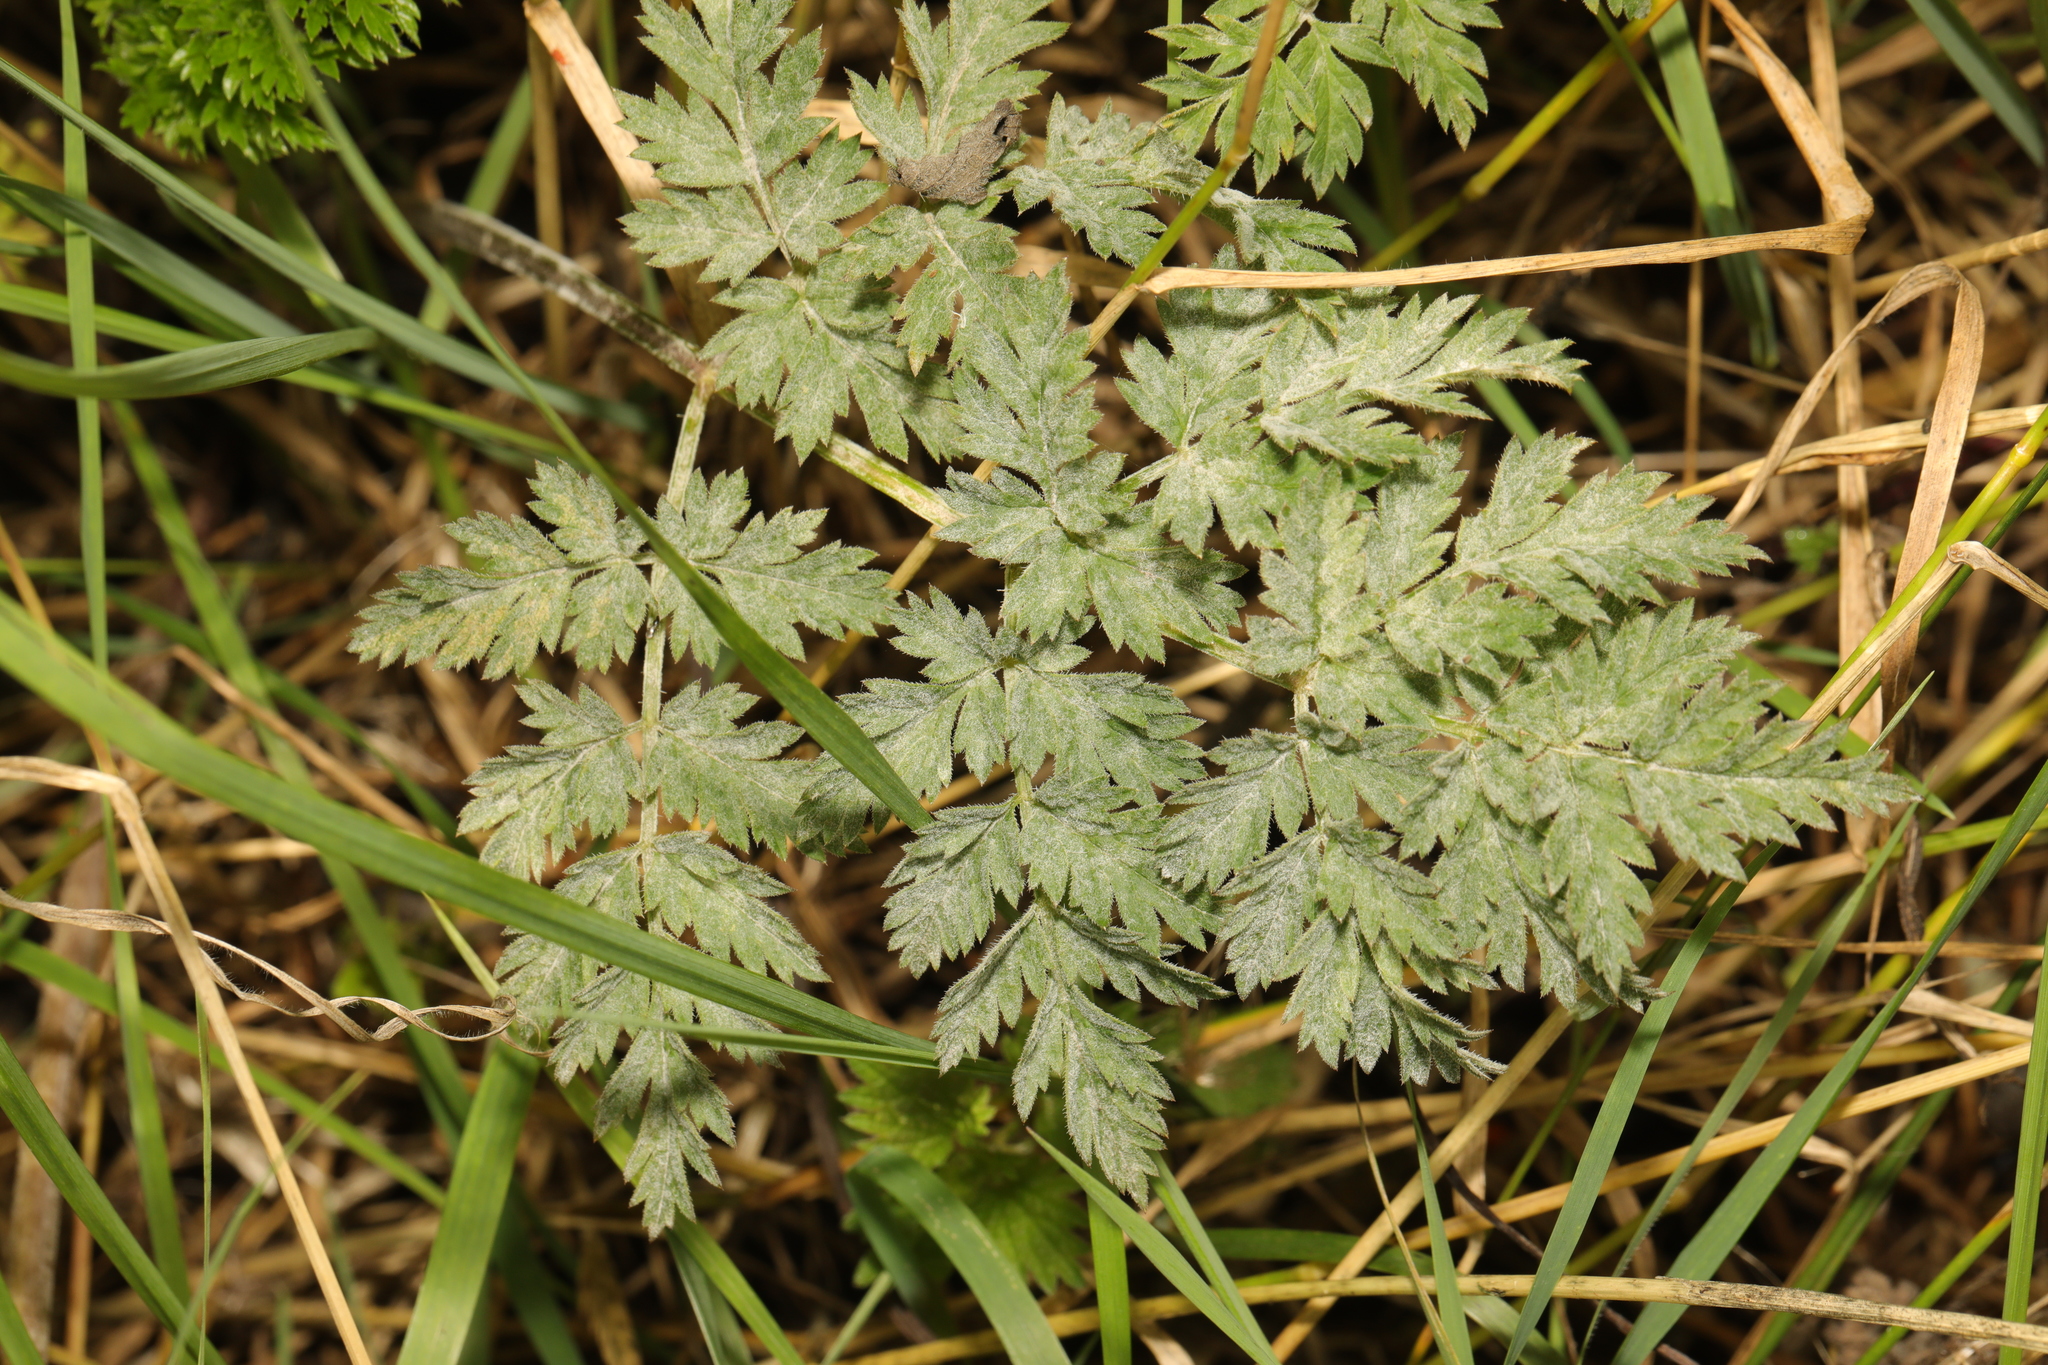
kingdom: Plantae
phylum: Tracheophyta
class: Magnoliopsida
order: Apiales
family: Apiaceae
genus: Anthriscus
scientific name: Anthriscus sylvestris
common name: Cow parsley
